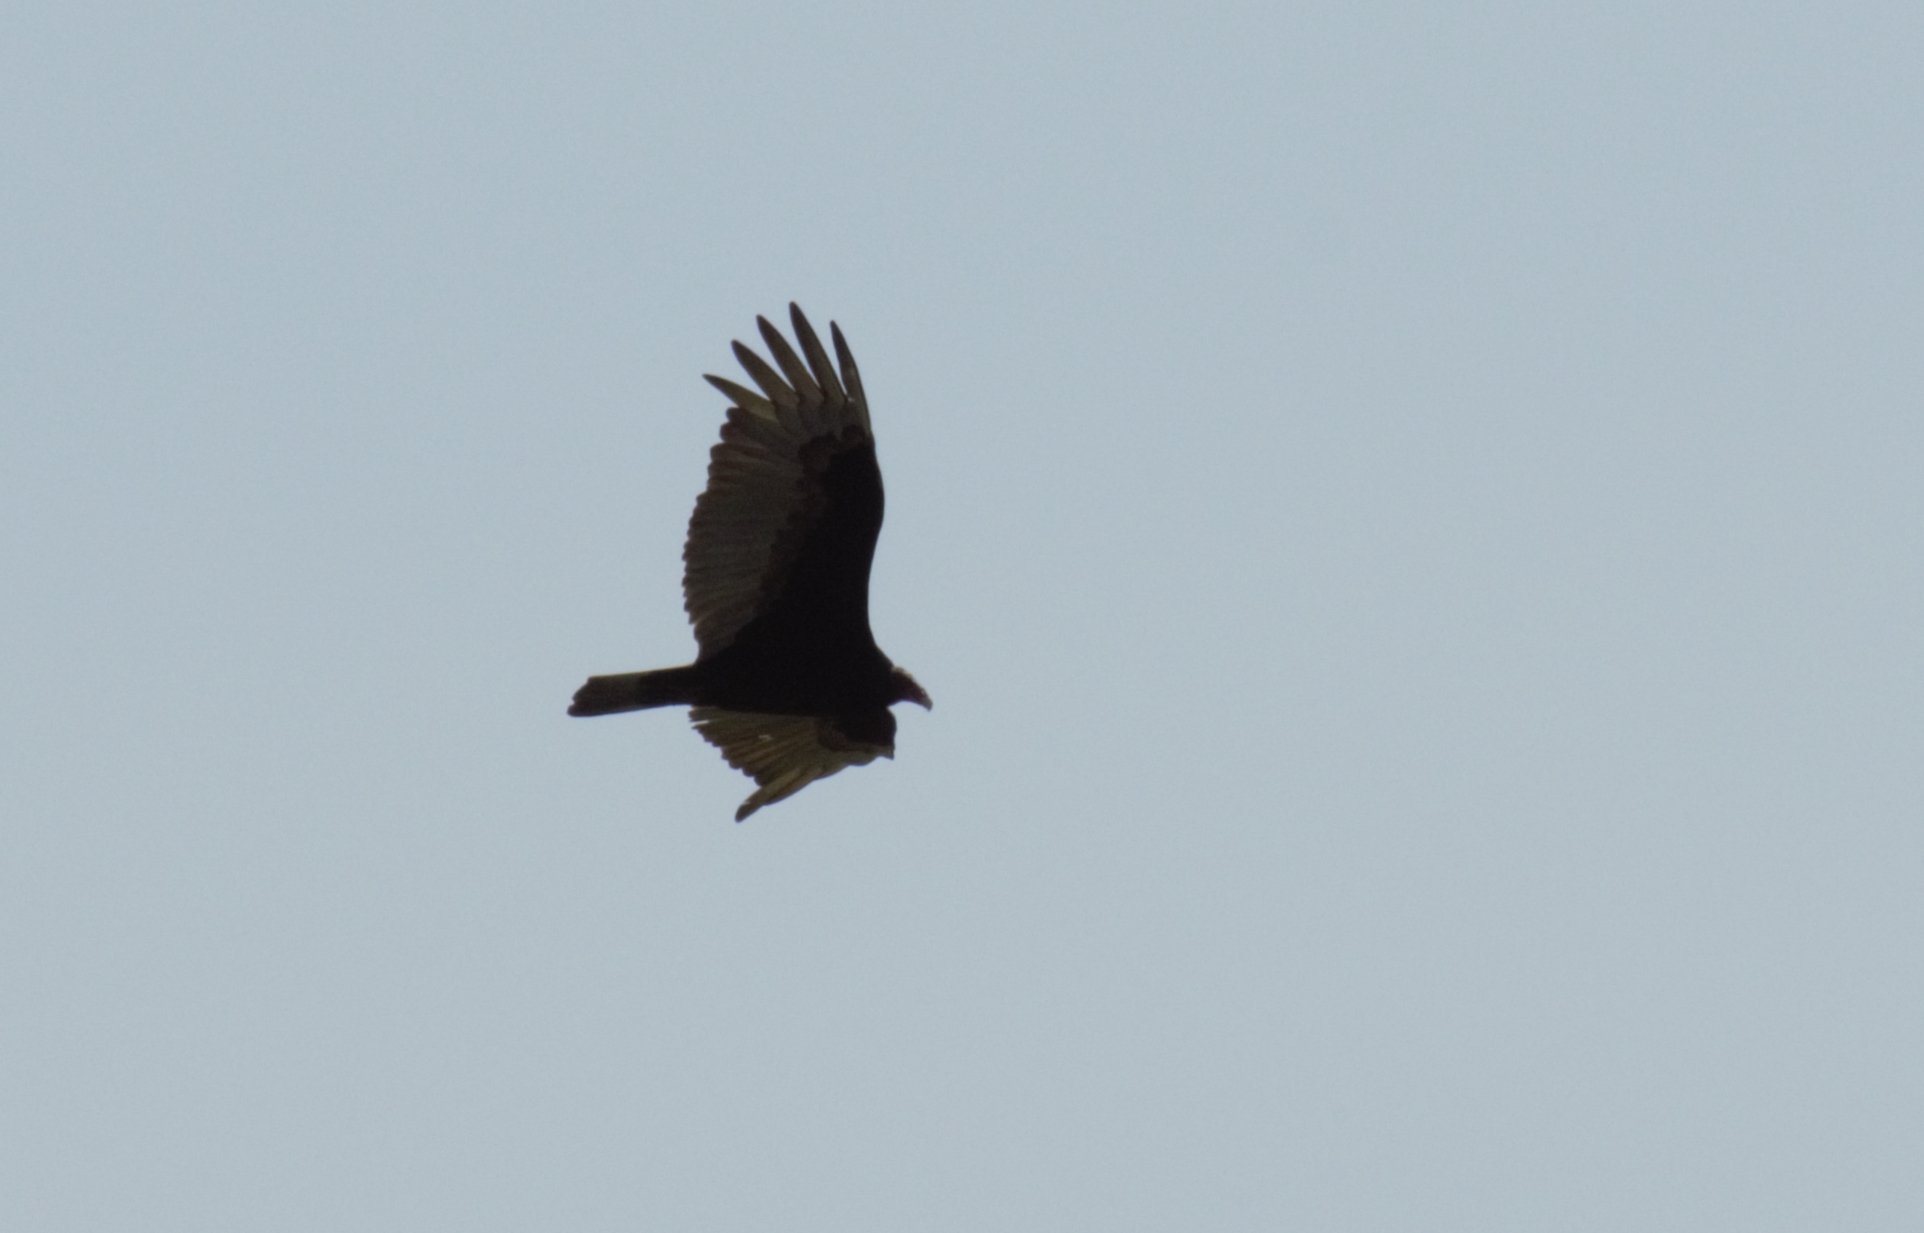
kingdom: Animalia
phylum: Chordata
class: Aves
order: Accipitriformes
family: Cathartidae
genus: Cathartes
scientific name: Cathartes aura
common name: Turkey vulture
